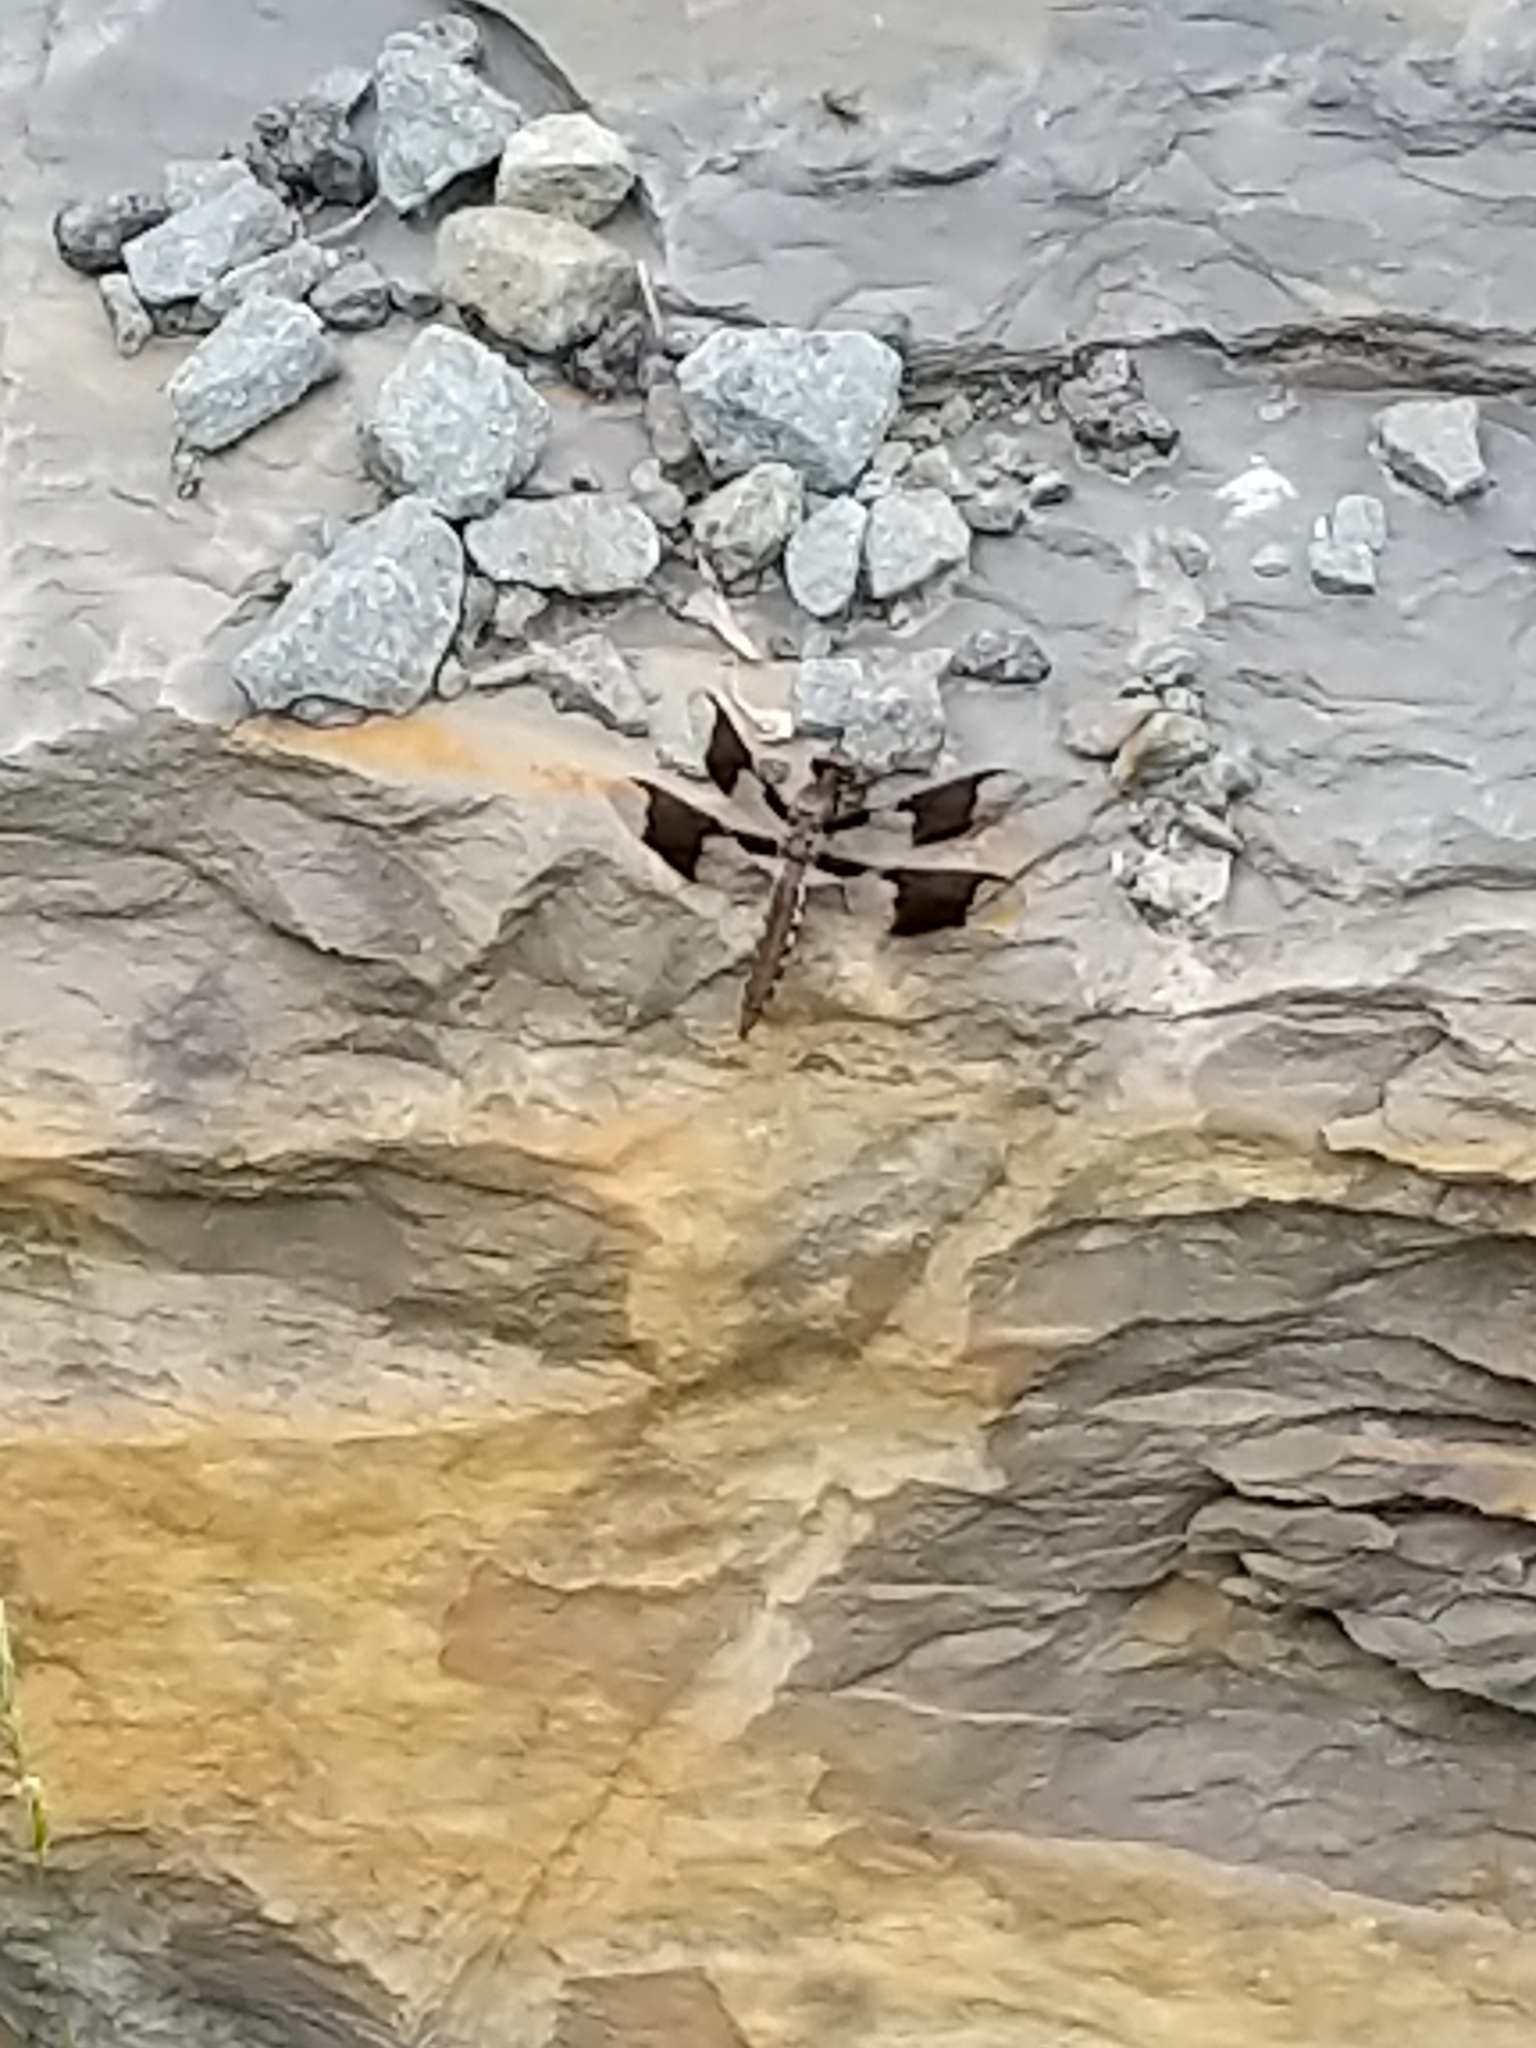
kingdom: Animalia
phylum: Arthropoda
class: Insecta
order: Odonata
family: Libellulidae
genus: Plathemis
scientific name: Plathemis lydia
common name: Common whitetail
